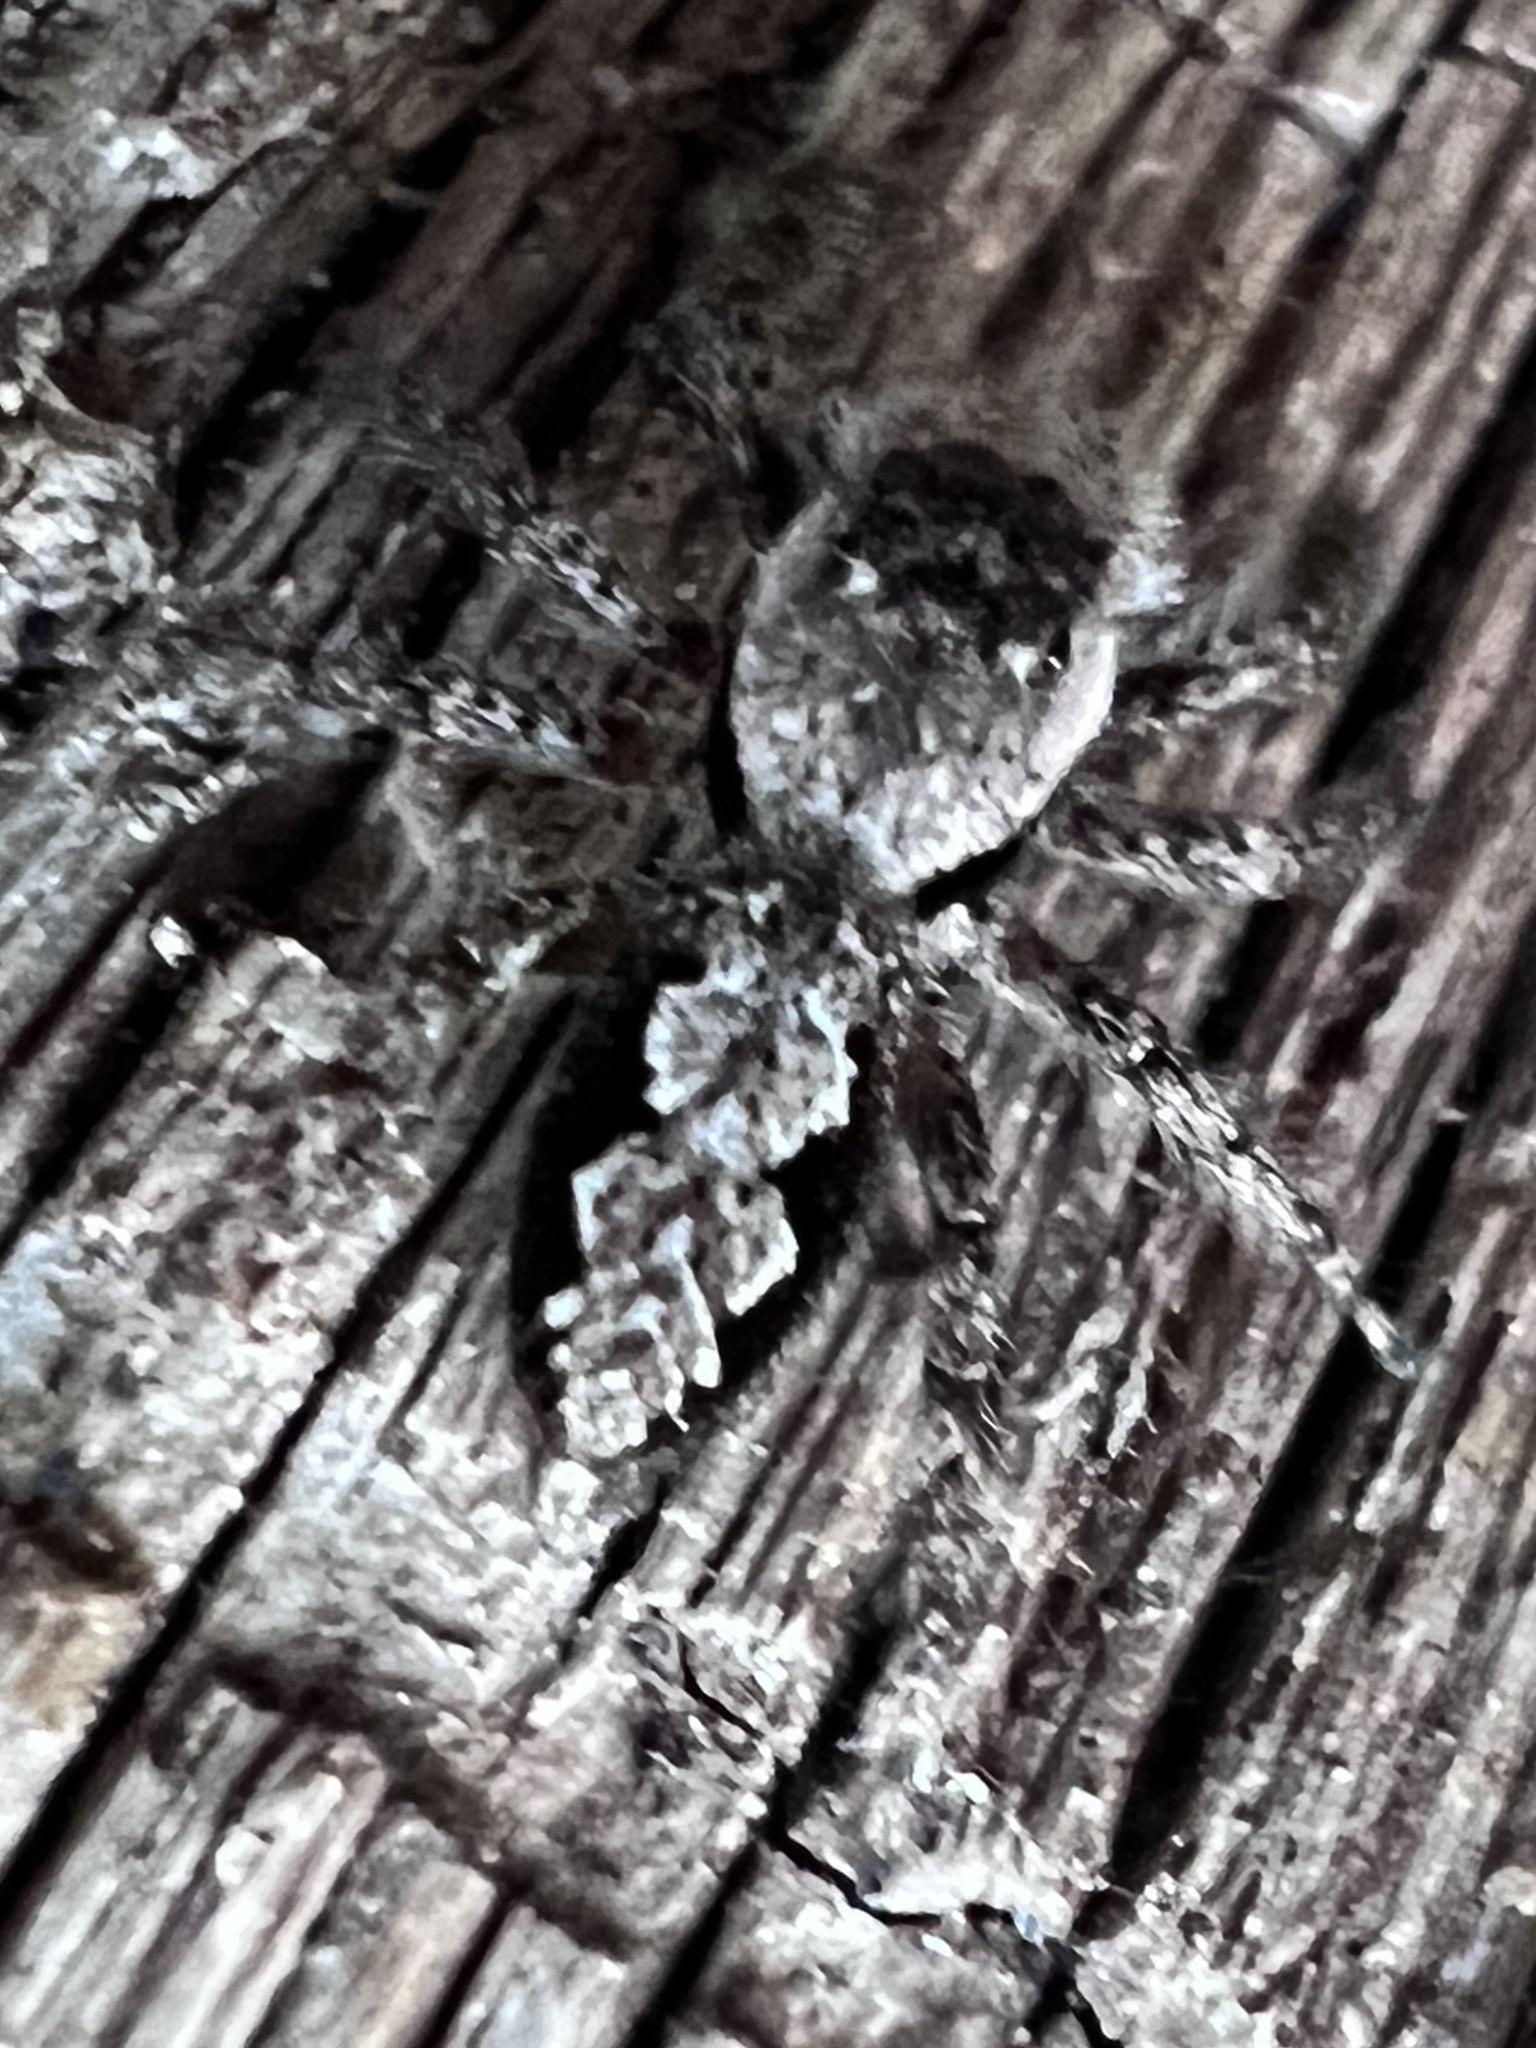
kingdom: Animalia
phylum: Arthropoda
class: Arachnida
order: Araneae
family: Salticidae
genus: Platycryptus
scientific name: Platycryptus undatus
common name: Tan jumping spider
